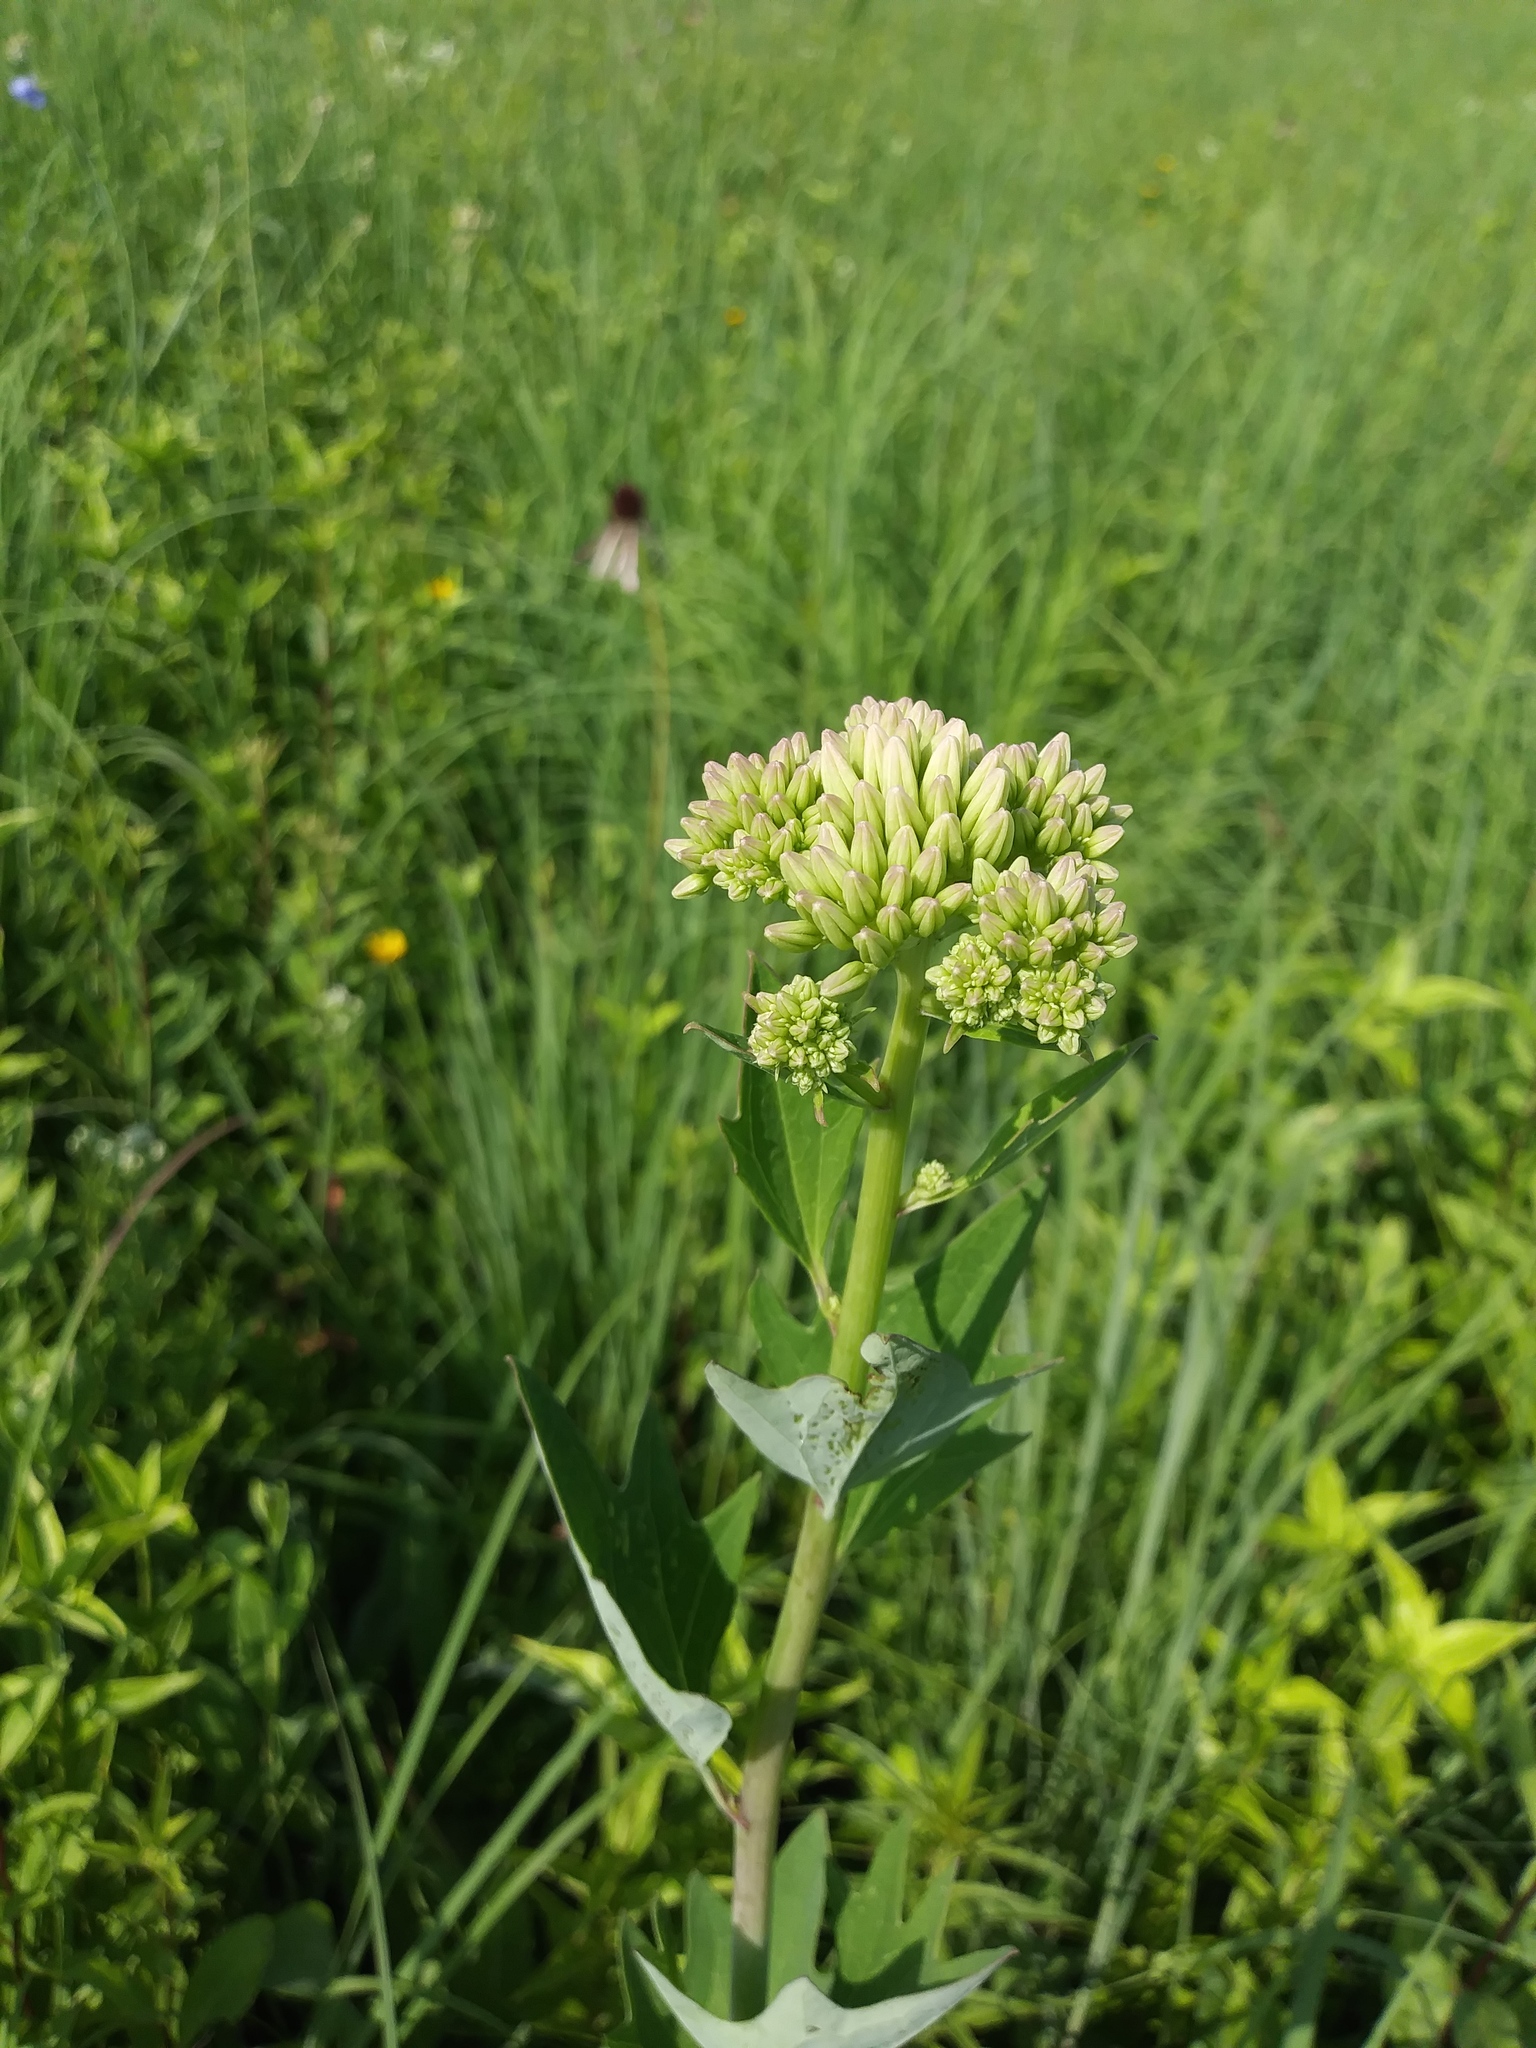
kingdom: Plantae
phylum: Tracheophyta
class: Magnoliopsida
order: Asterales
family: Asteraceae
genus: Arnoglossum
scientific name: Arnoglossum atriplicifolium
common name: Pale indian-plantain
